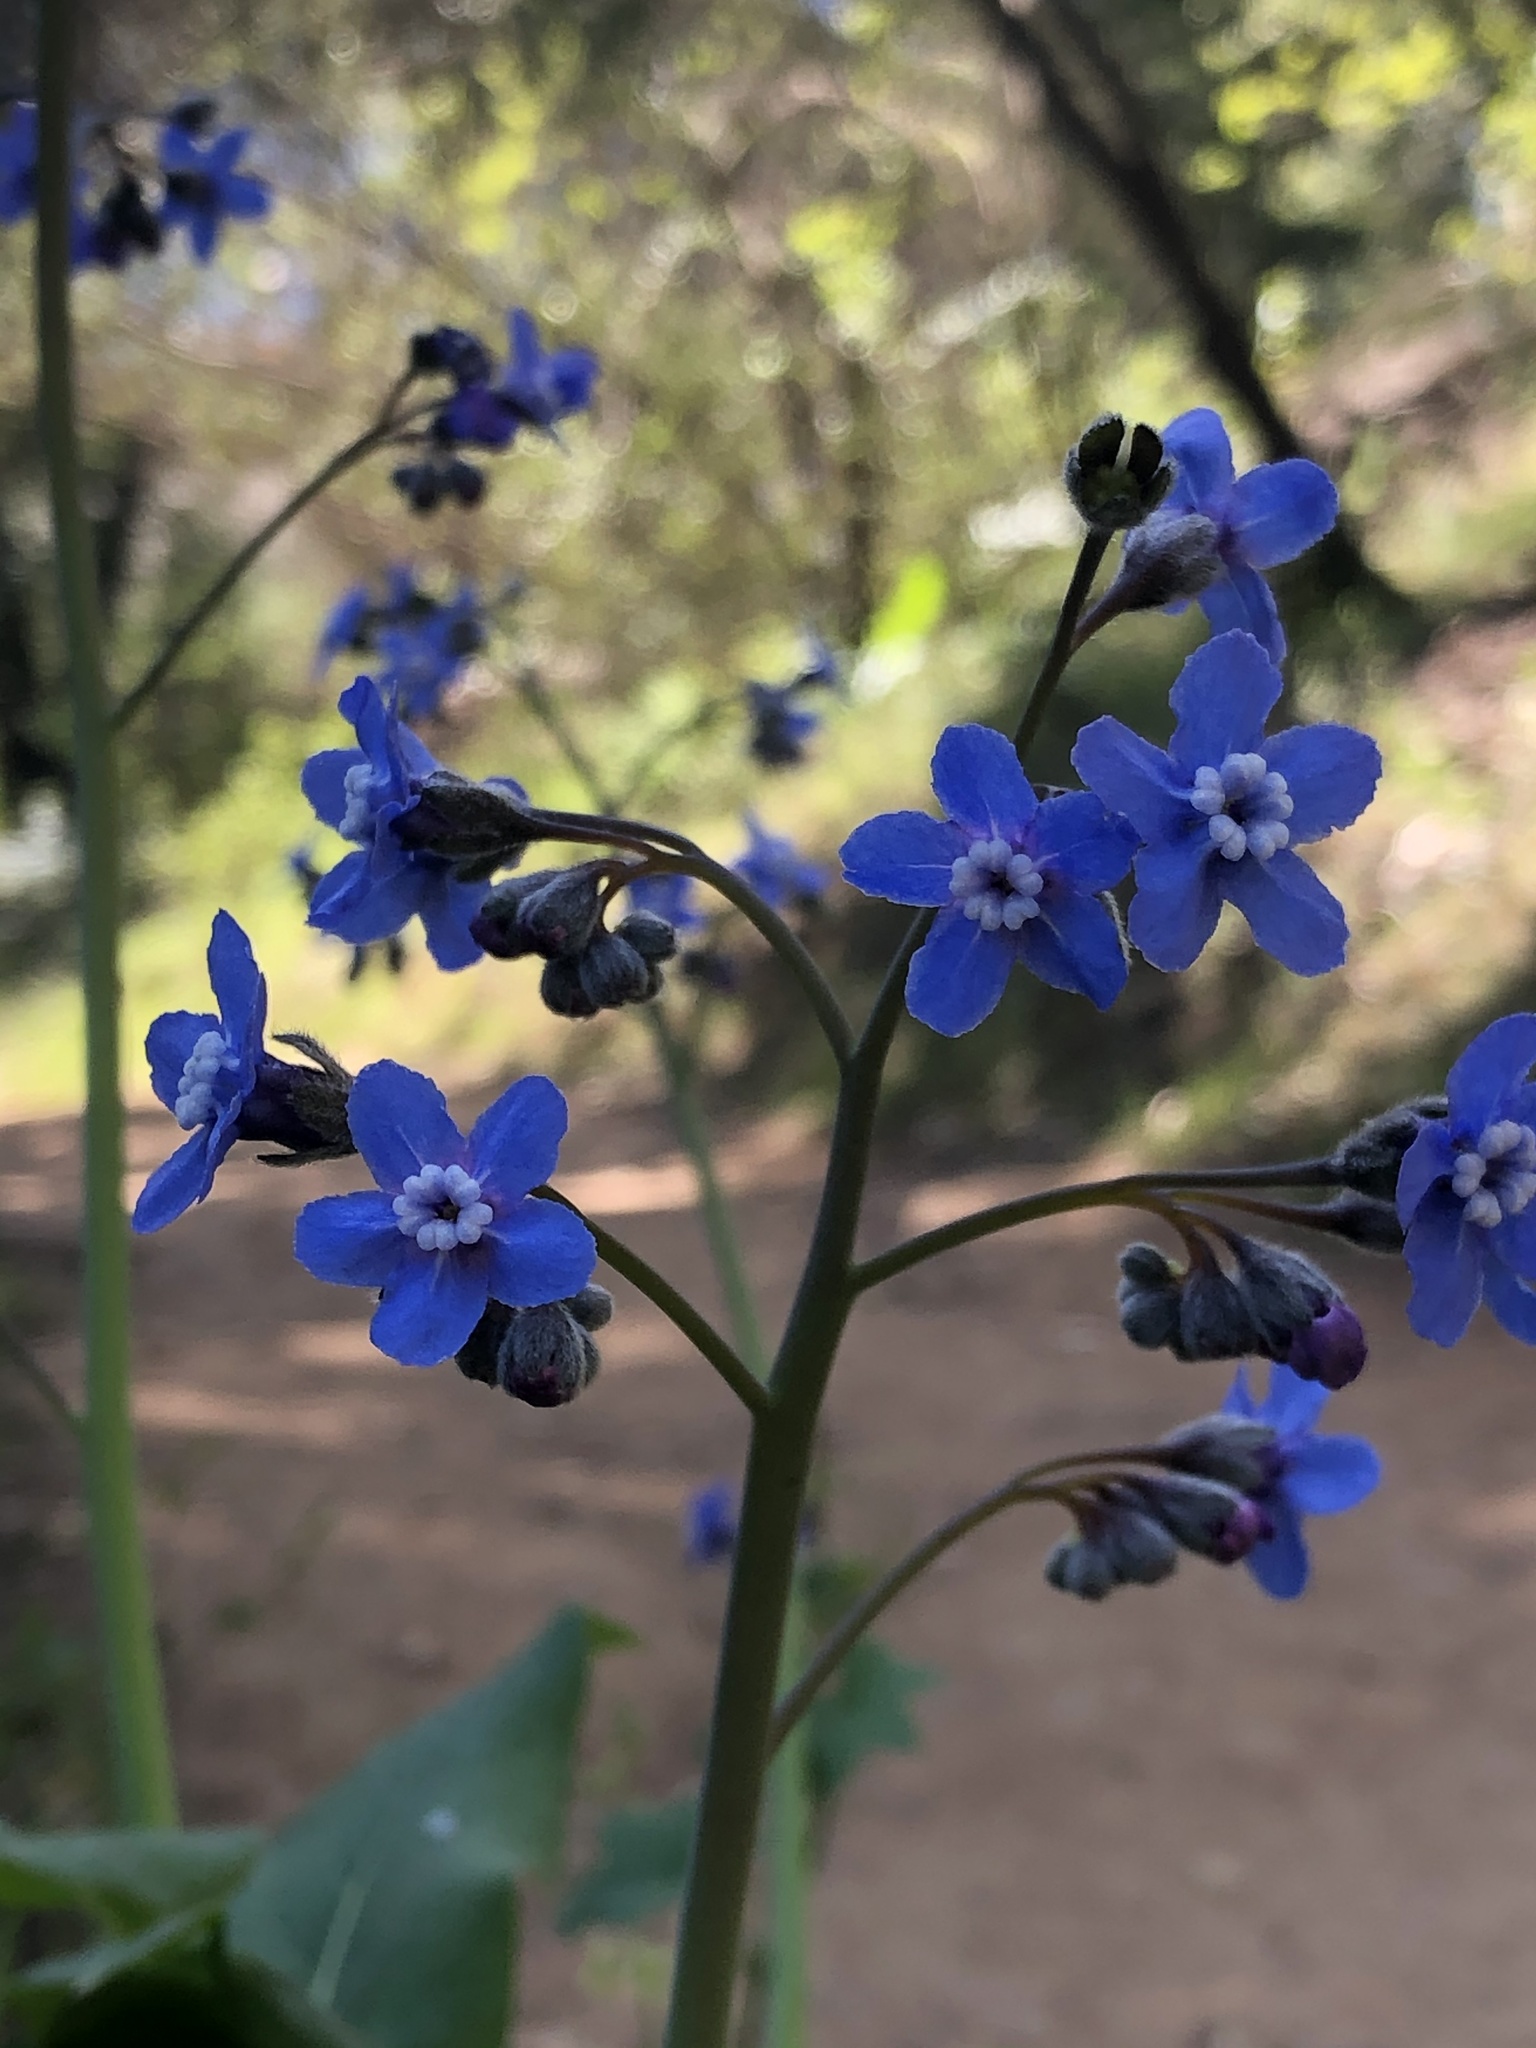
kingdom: Plantae
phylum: Tracheophyta
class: Magnoliopsida
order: Boraginales
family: Boraginaceae
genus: Adelinia
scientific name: Adelinia grande
